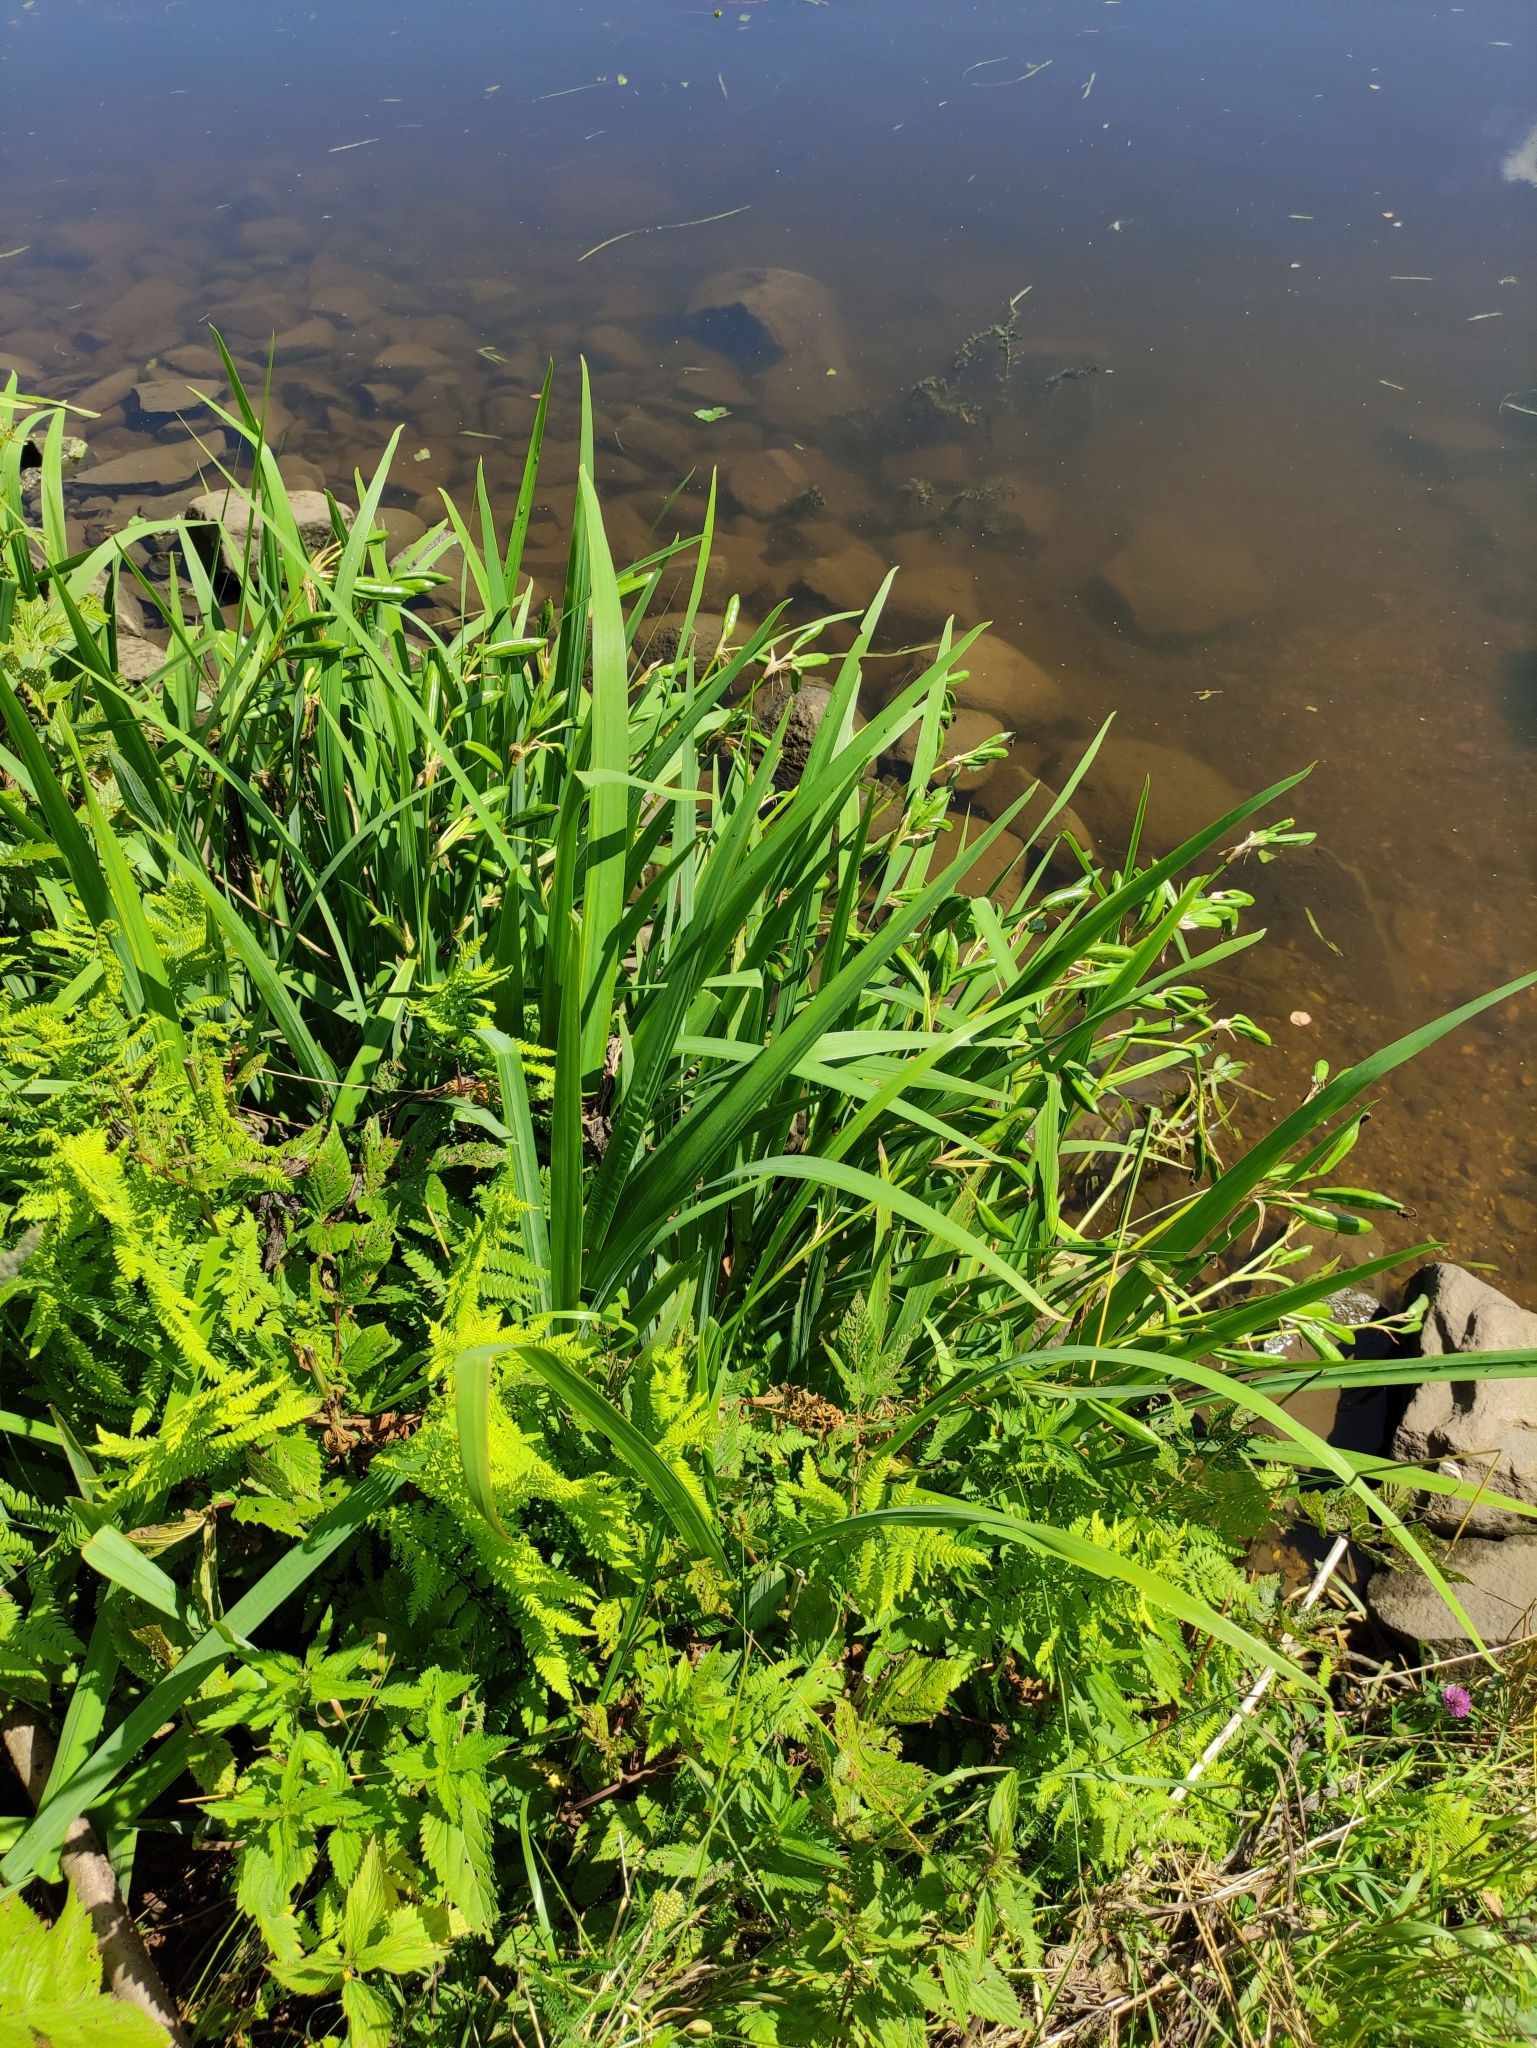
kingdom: Plantae
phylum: Tracheophyta
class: Liliopsida
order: Asparagales
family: Iridaceae
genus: Iris
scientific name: Iris pseudacorus
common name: Yellow flag
